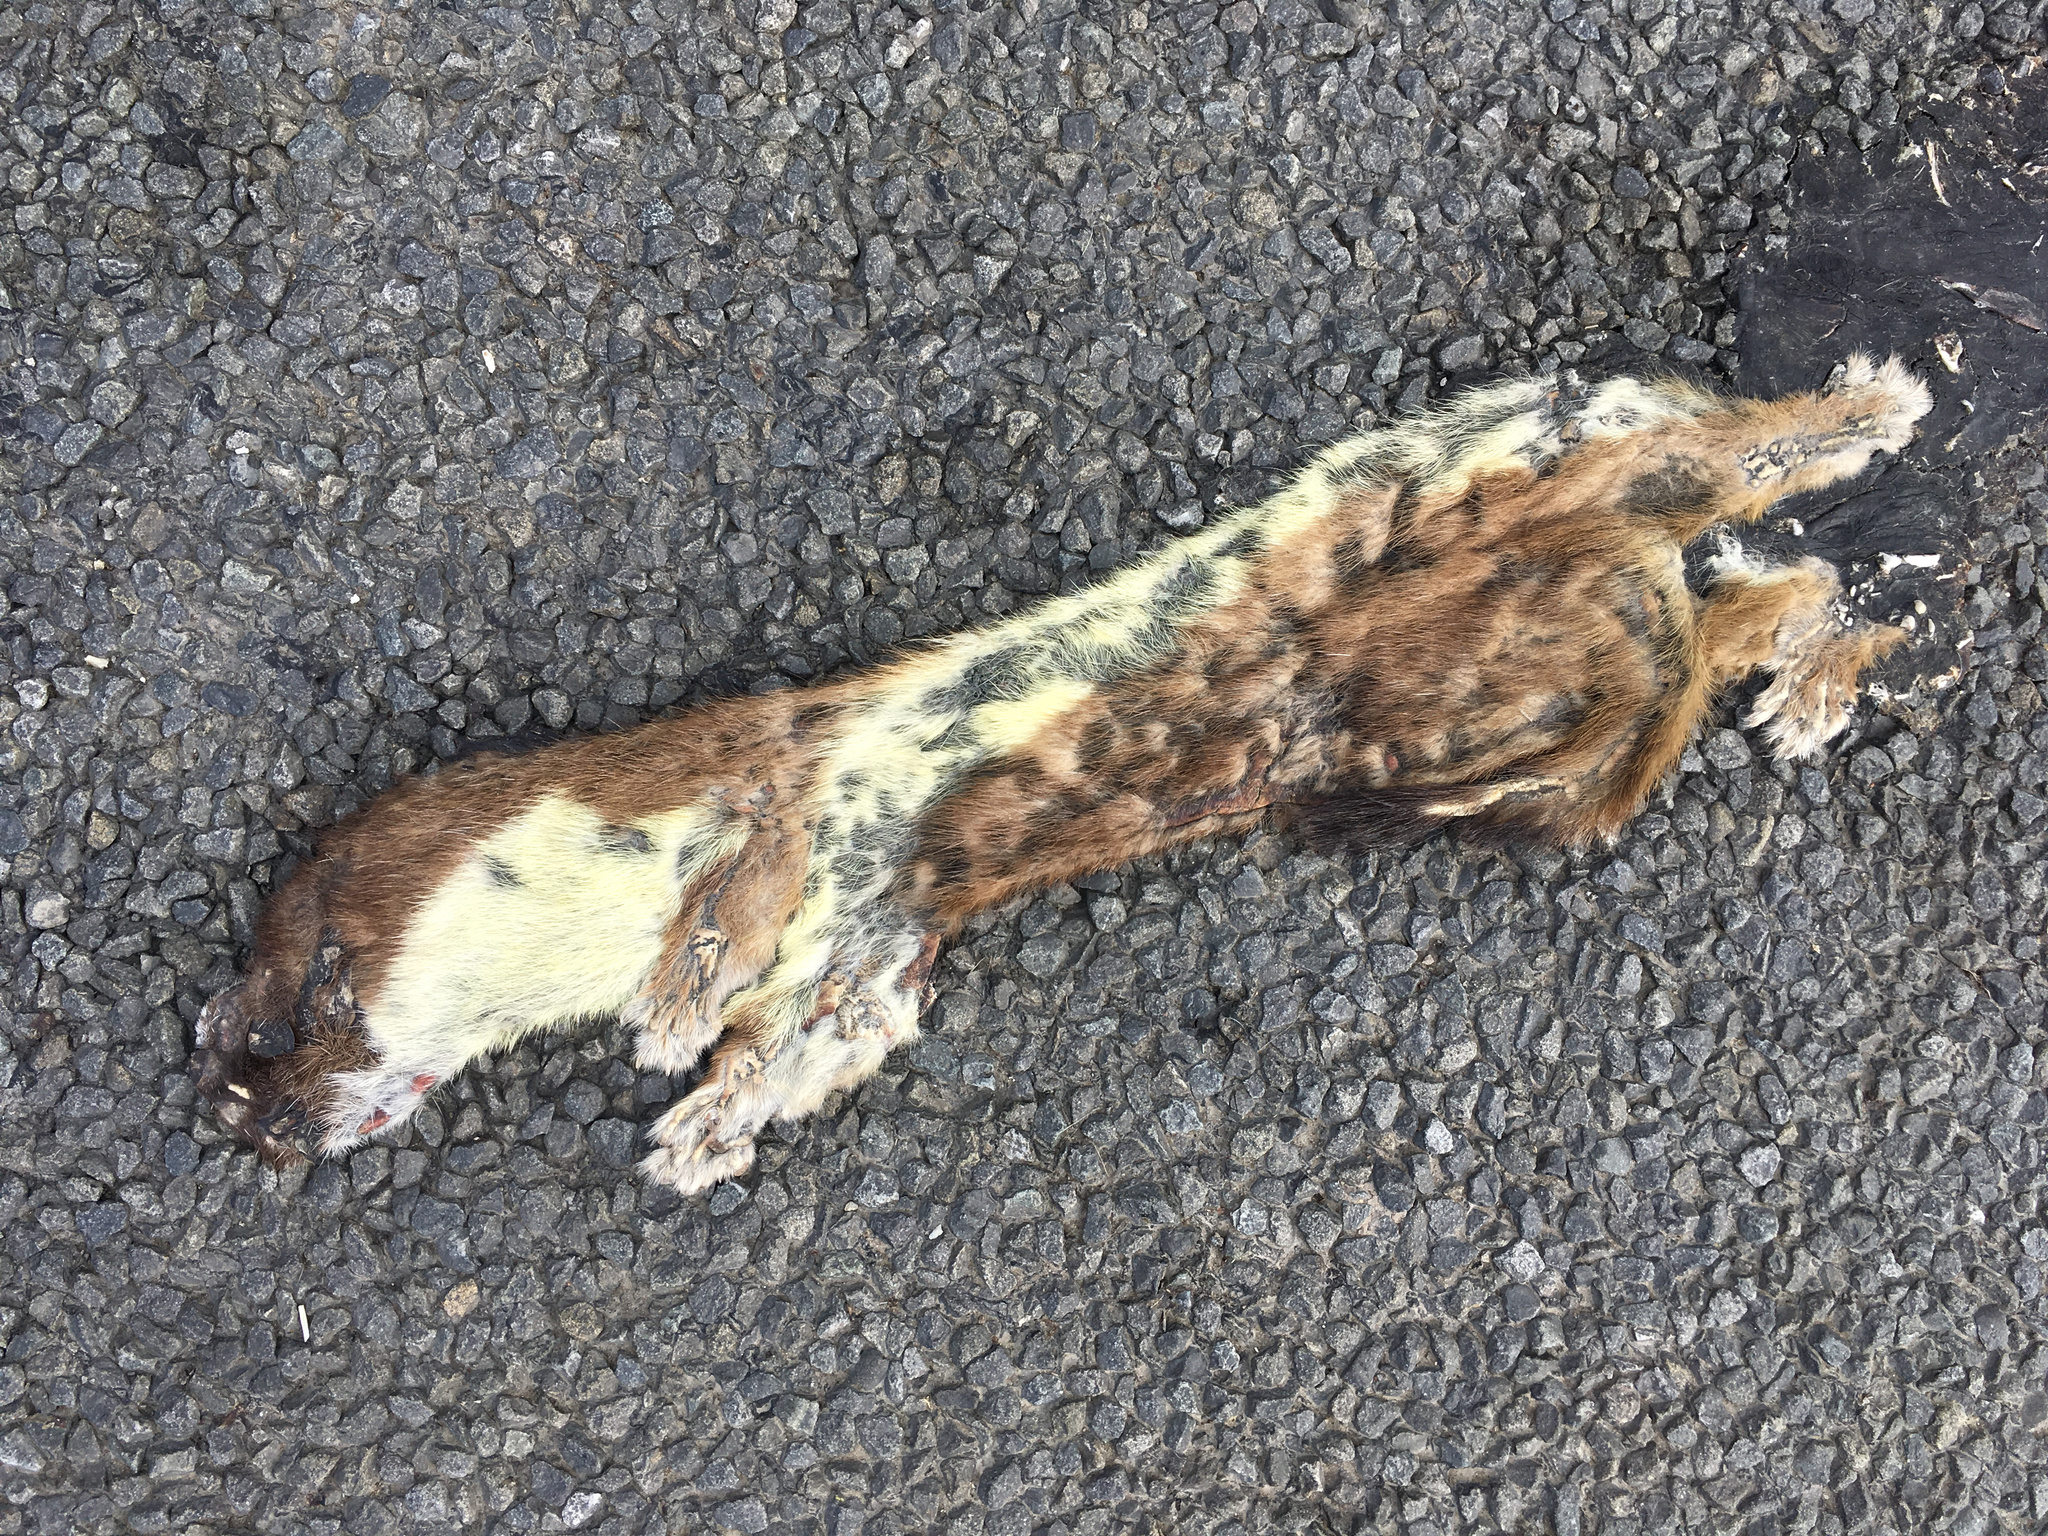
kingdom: Animalia
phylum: Chordata
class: Mammalia
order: Carnivora
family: Mustelidae
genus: Mustela
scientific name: Mustela erminea
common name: Stoat
